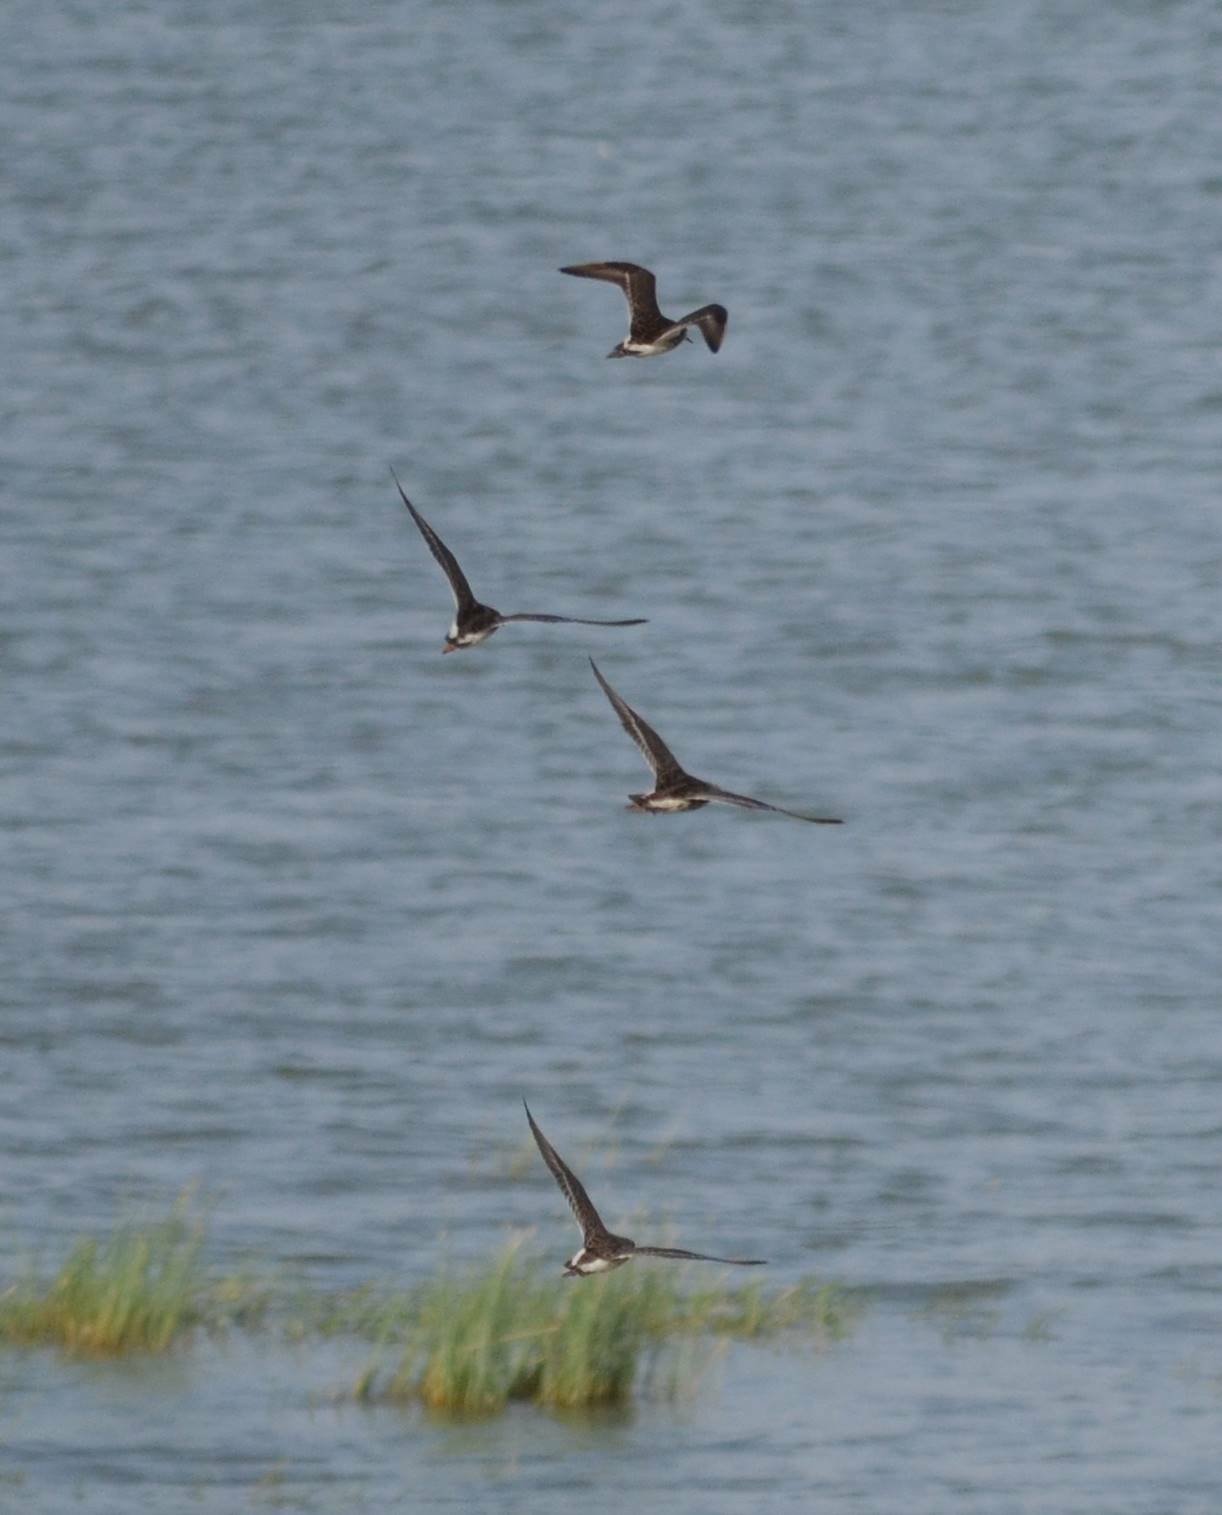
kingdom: Animalia
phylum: Chordata
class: Aves
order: Charadriiformes
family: Scolopacidae
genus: Calidris
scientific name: Calidris pugnax
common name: Ruff
